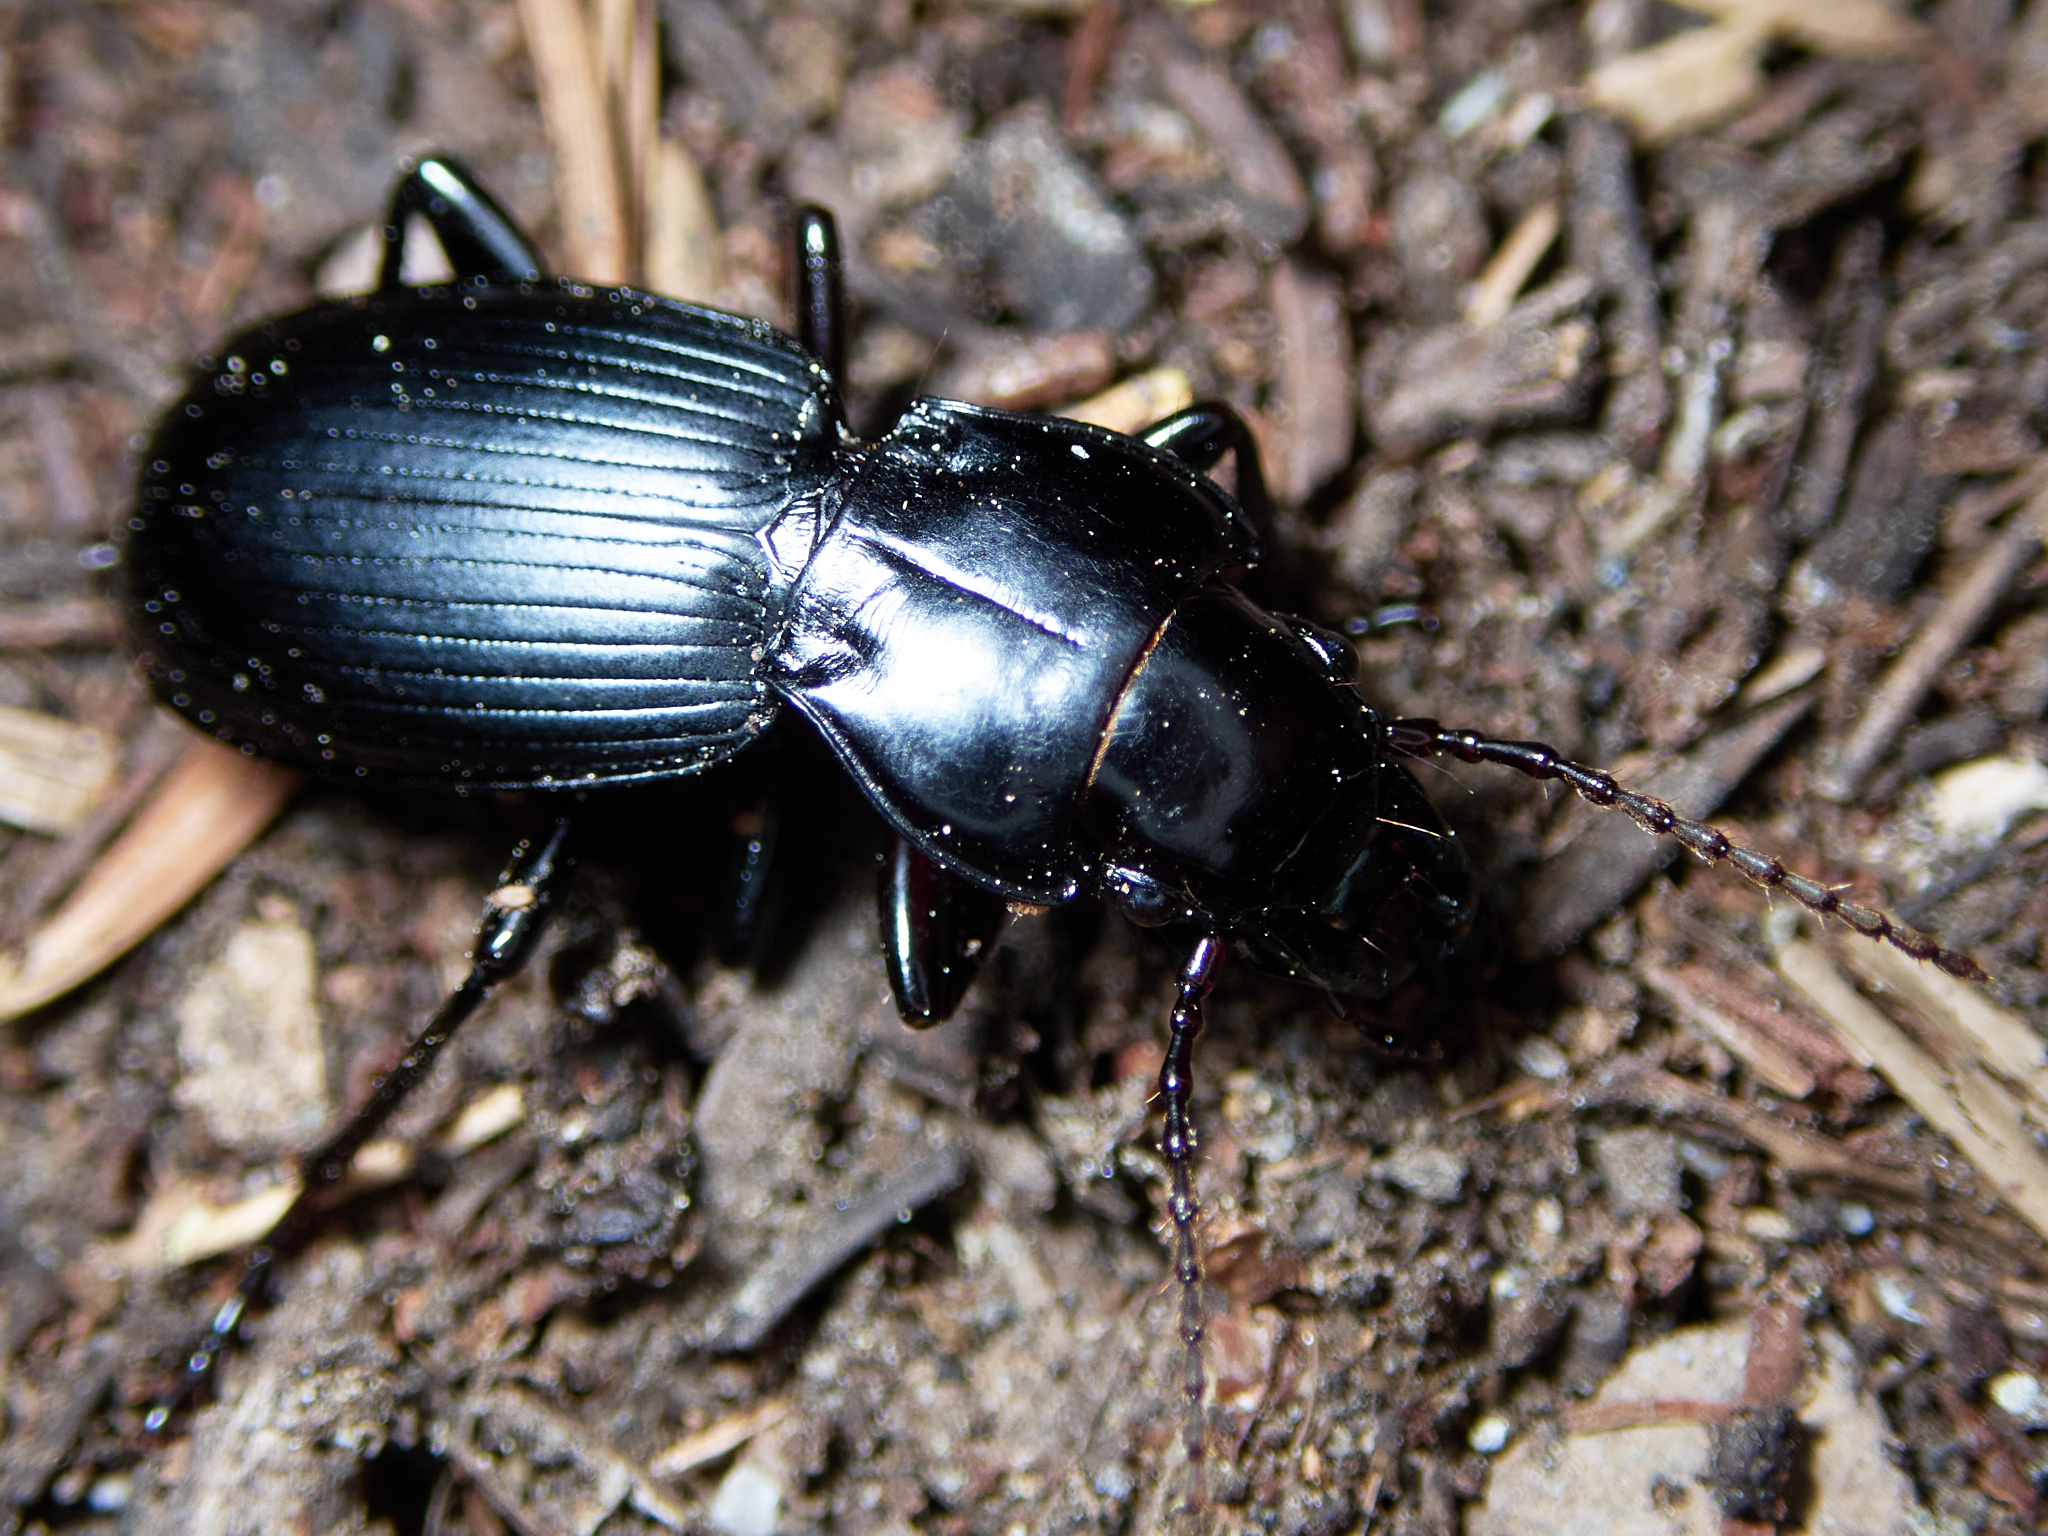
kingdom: Animalia
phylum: Arthropoda
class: Insecta
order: Coleoptera
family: Carabidae
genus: Pterostichus
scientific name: Pterostichus lama
